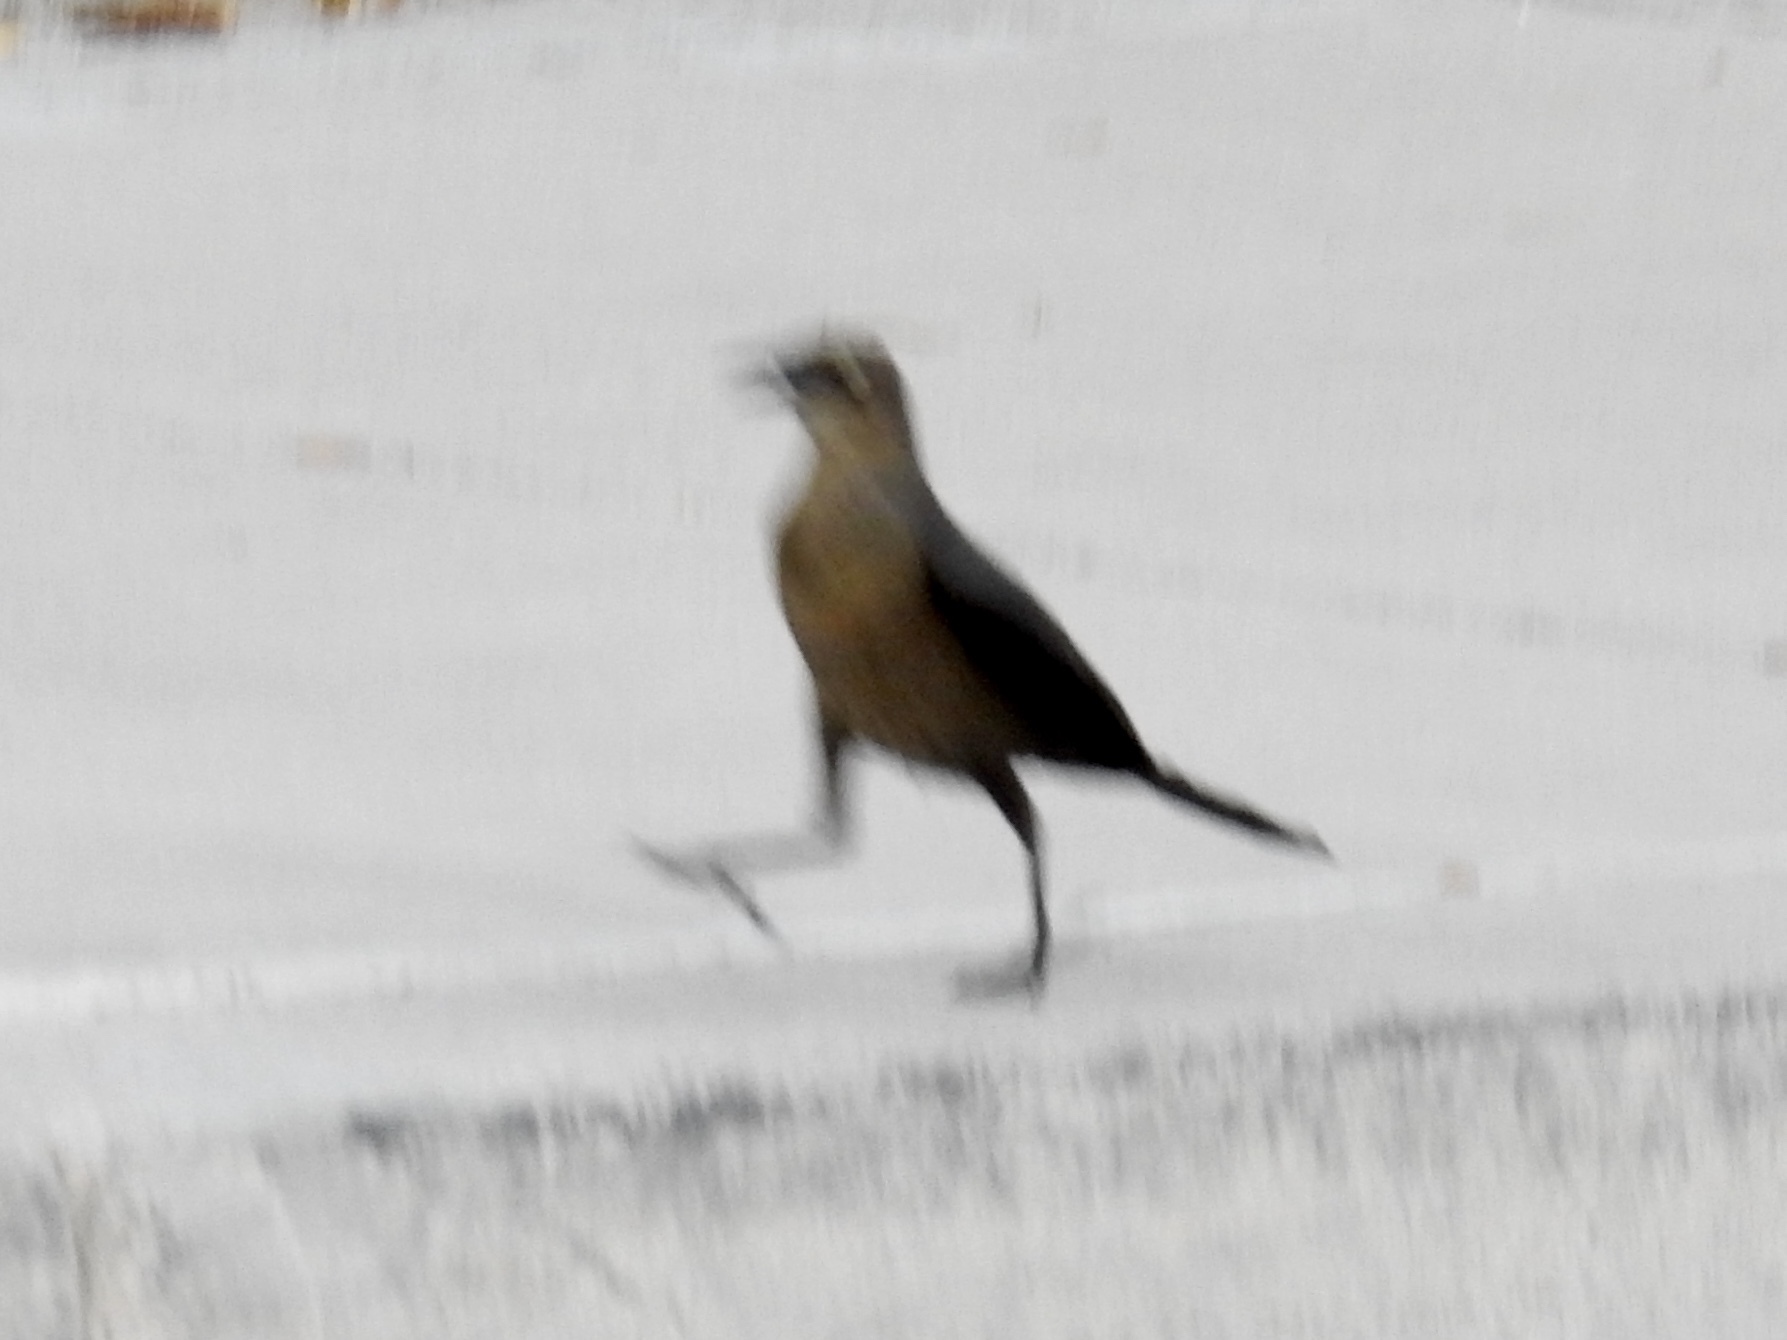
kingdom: Animalia
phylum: Chordata
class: Aves
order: Passeriformes
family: Icteridae
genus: Quiscalus
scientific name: Quiscalus mexicanus
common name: Great-tailed grackle
